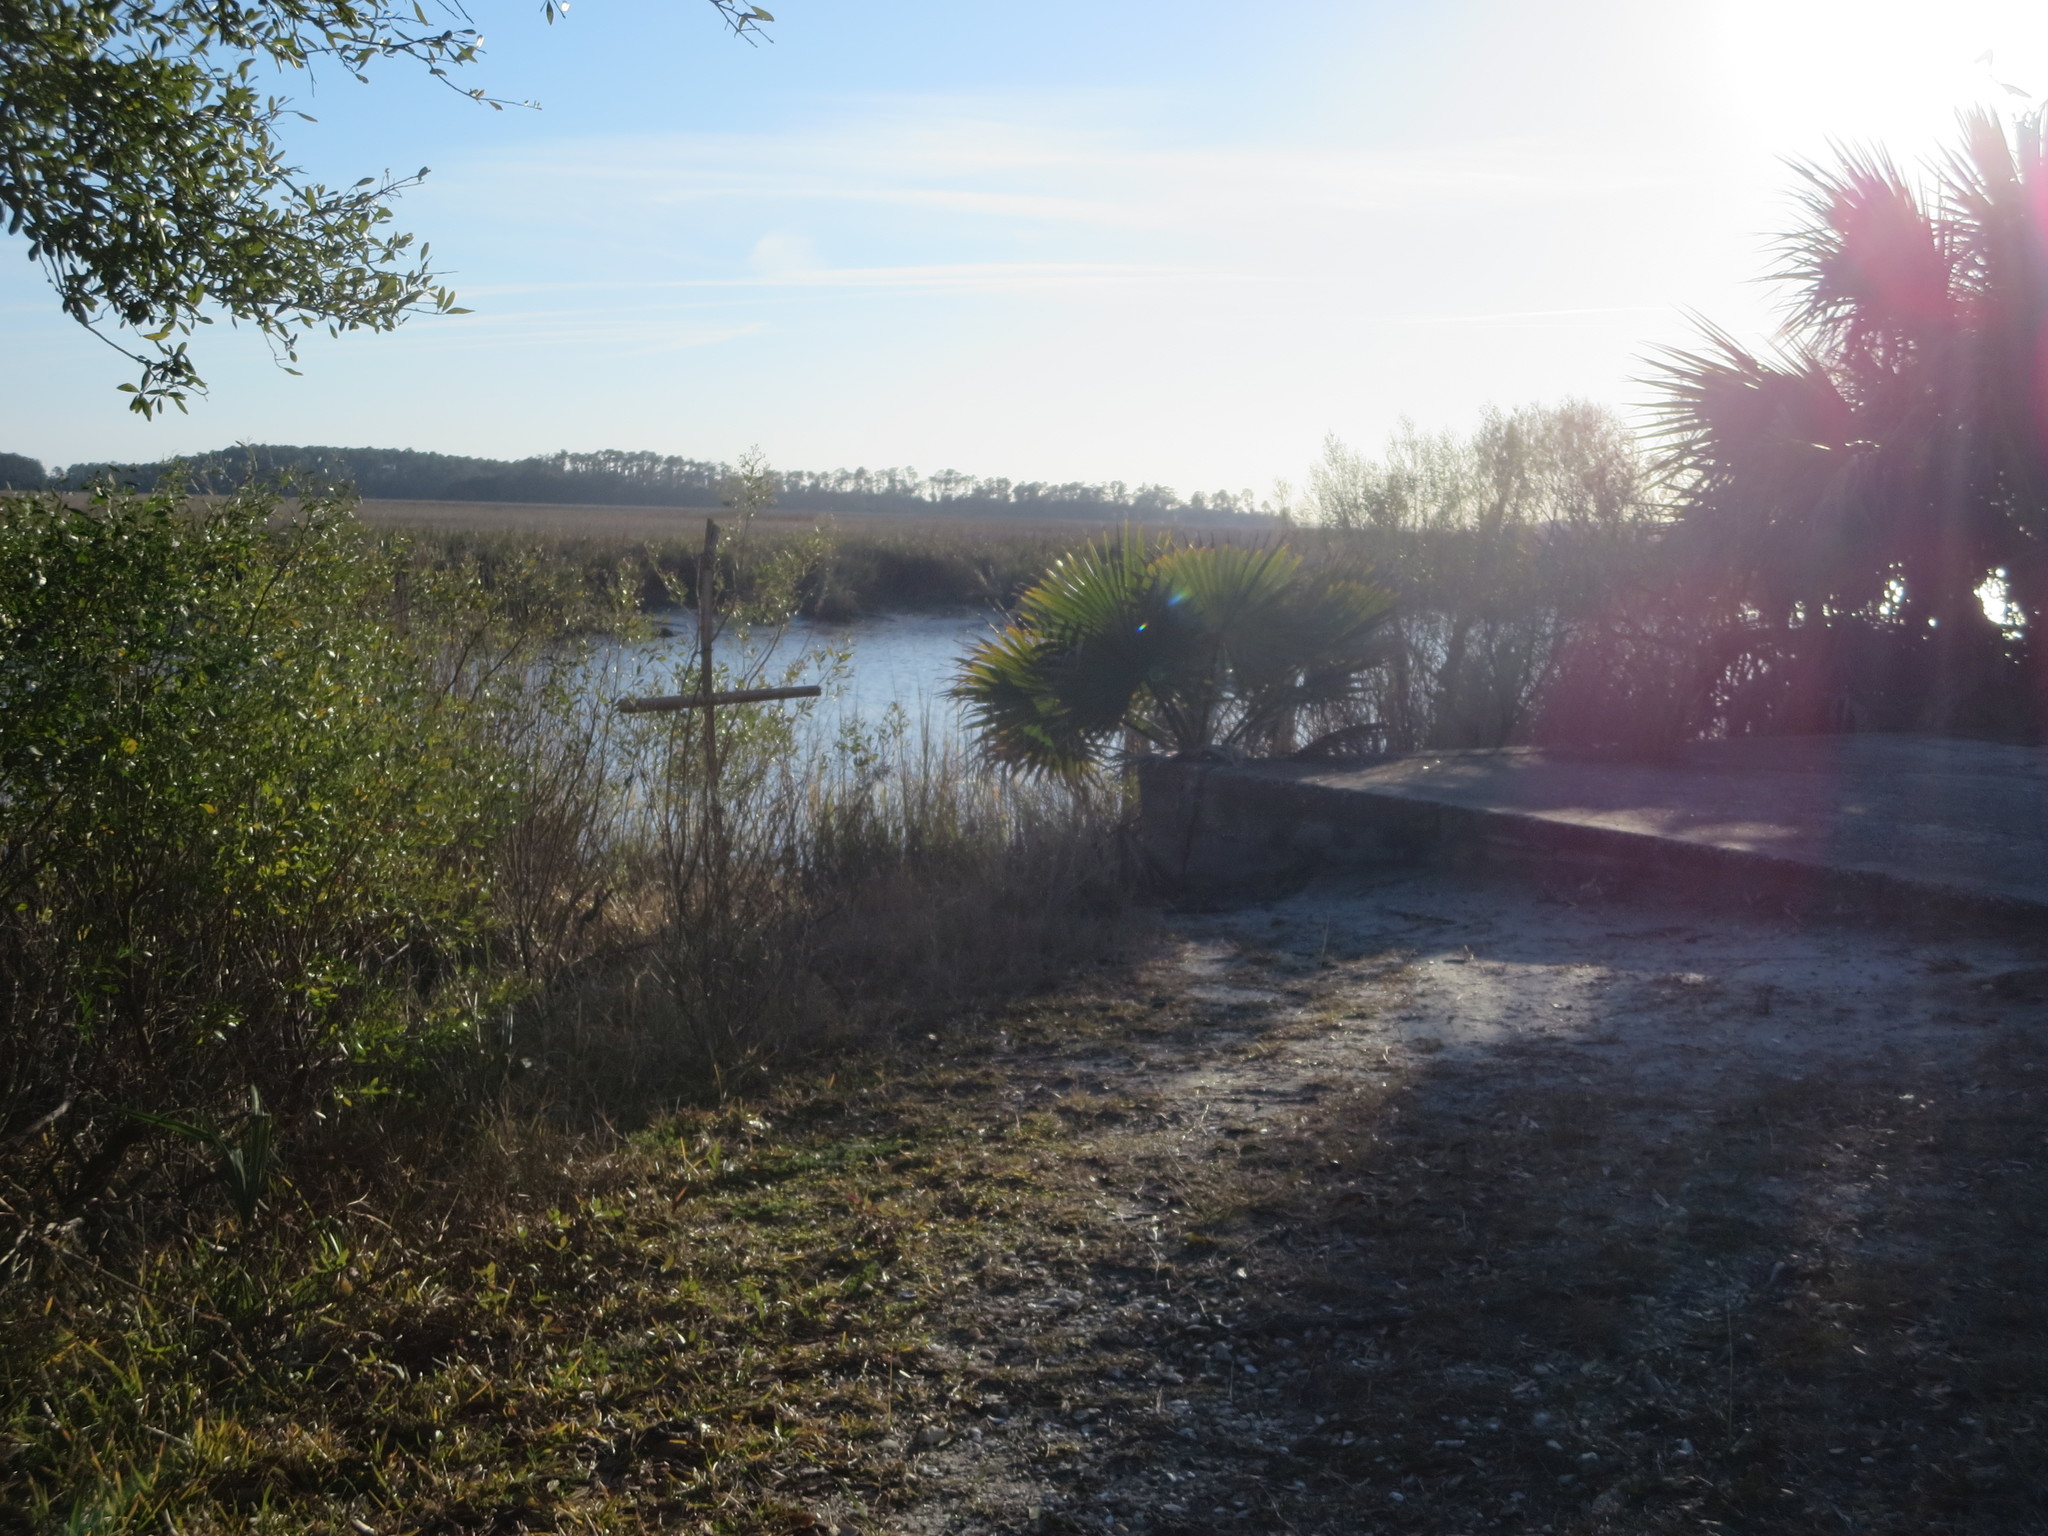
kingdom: Plantae
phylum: Tracheophyta
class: Liliopsida
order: Arecales
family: Arecaceae
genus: Washingtonia
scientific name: Washingtonia robusta
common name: Mexican fan palm
